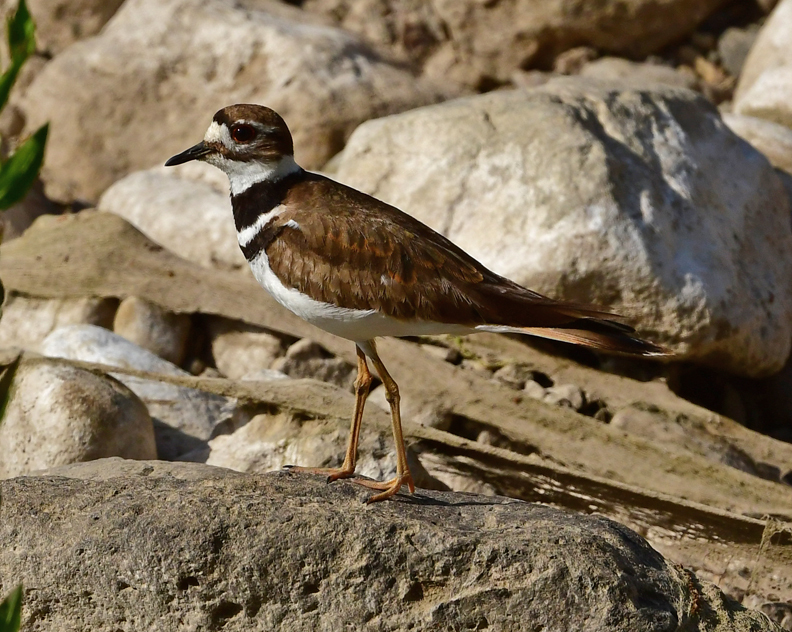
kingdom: Animalia
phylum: Chordata
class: Aves
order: Charadriiformes
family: Charadriidae
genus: Charadrius
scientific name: Charadrius vociferus
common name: Killdeer
